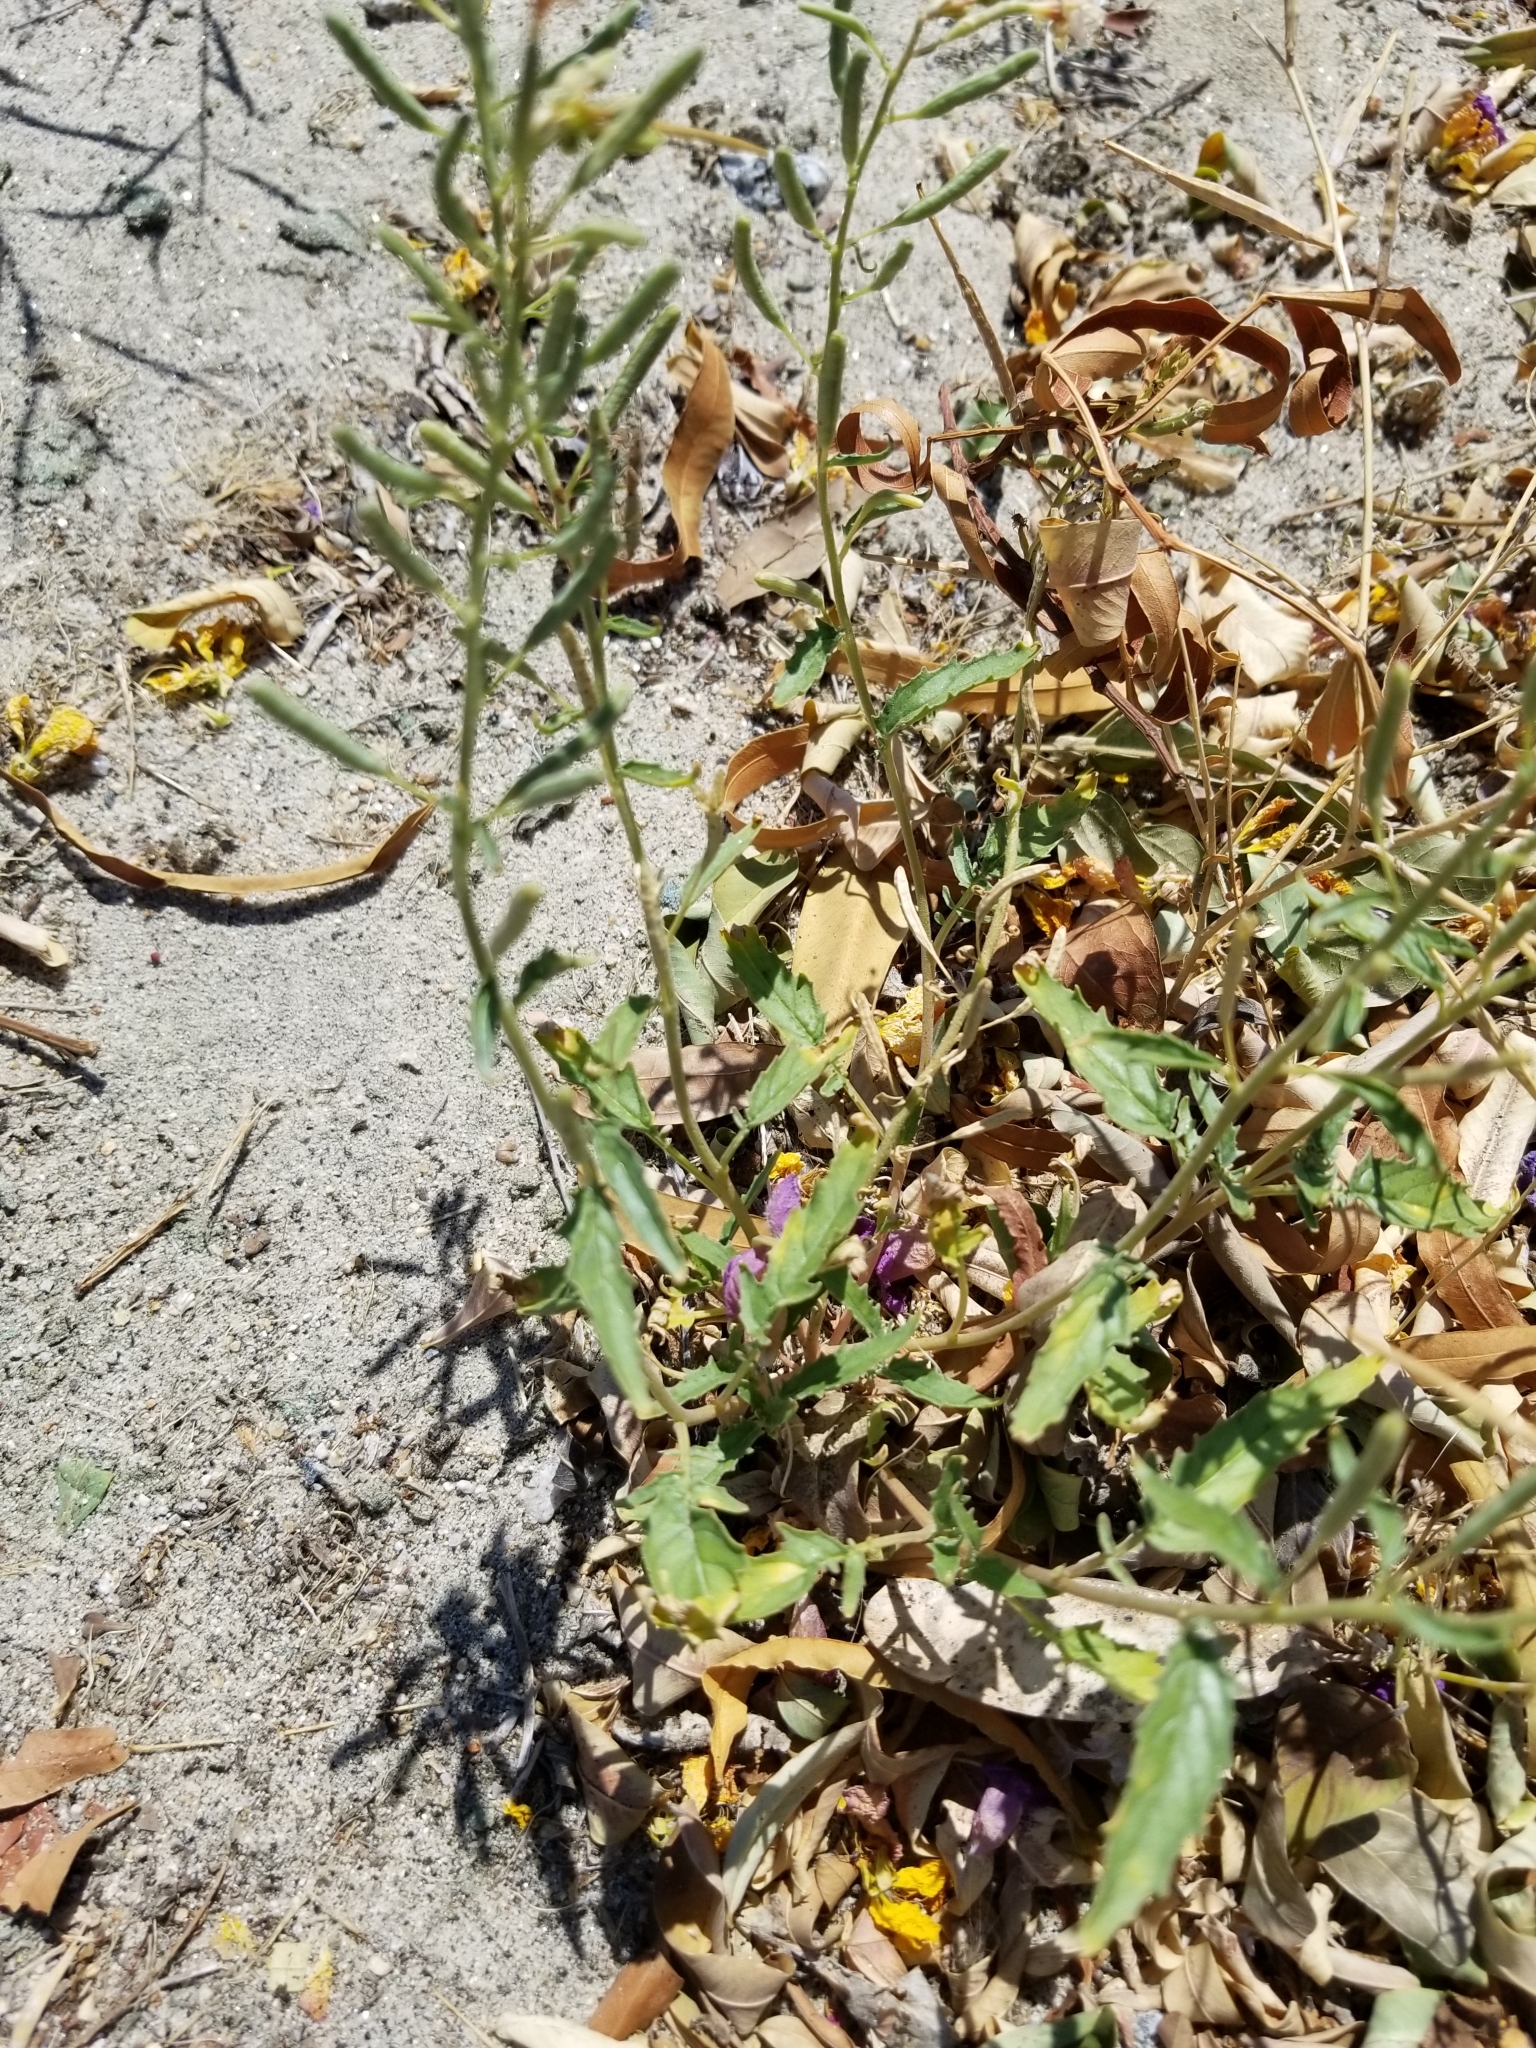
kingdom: Plantae
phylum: Tracheophyta
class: Magnoliopsida
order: Myrtales
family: Onagraceae
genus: Chylismia
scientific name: Chylismia claviformis
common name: Browneyes
